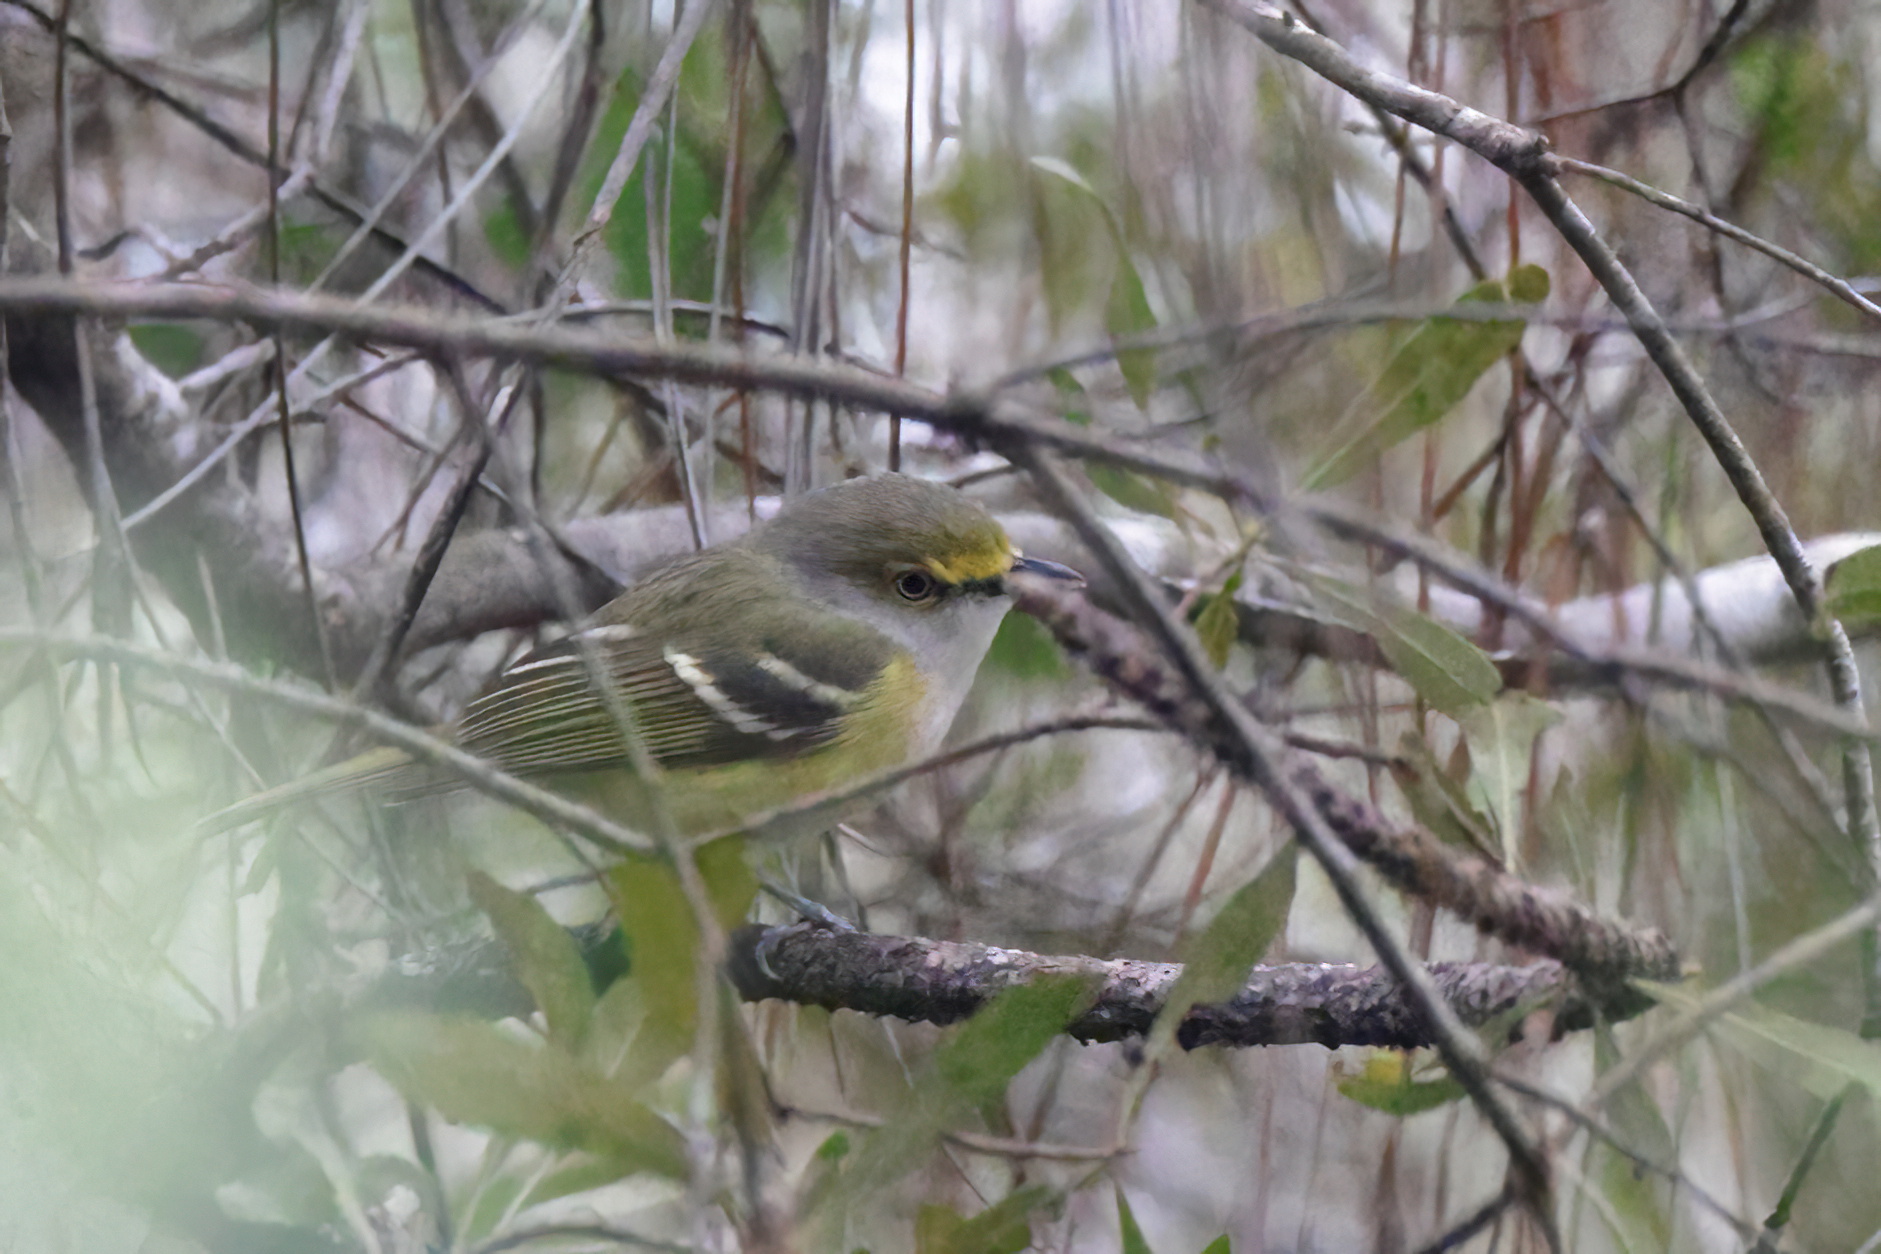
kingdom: Animalia
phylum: Chordata
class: Aves
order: Passeriformes
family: Vireonidae
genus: Vireo
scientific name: Vireo griseus
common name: White-eyed vireo
